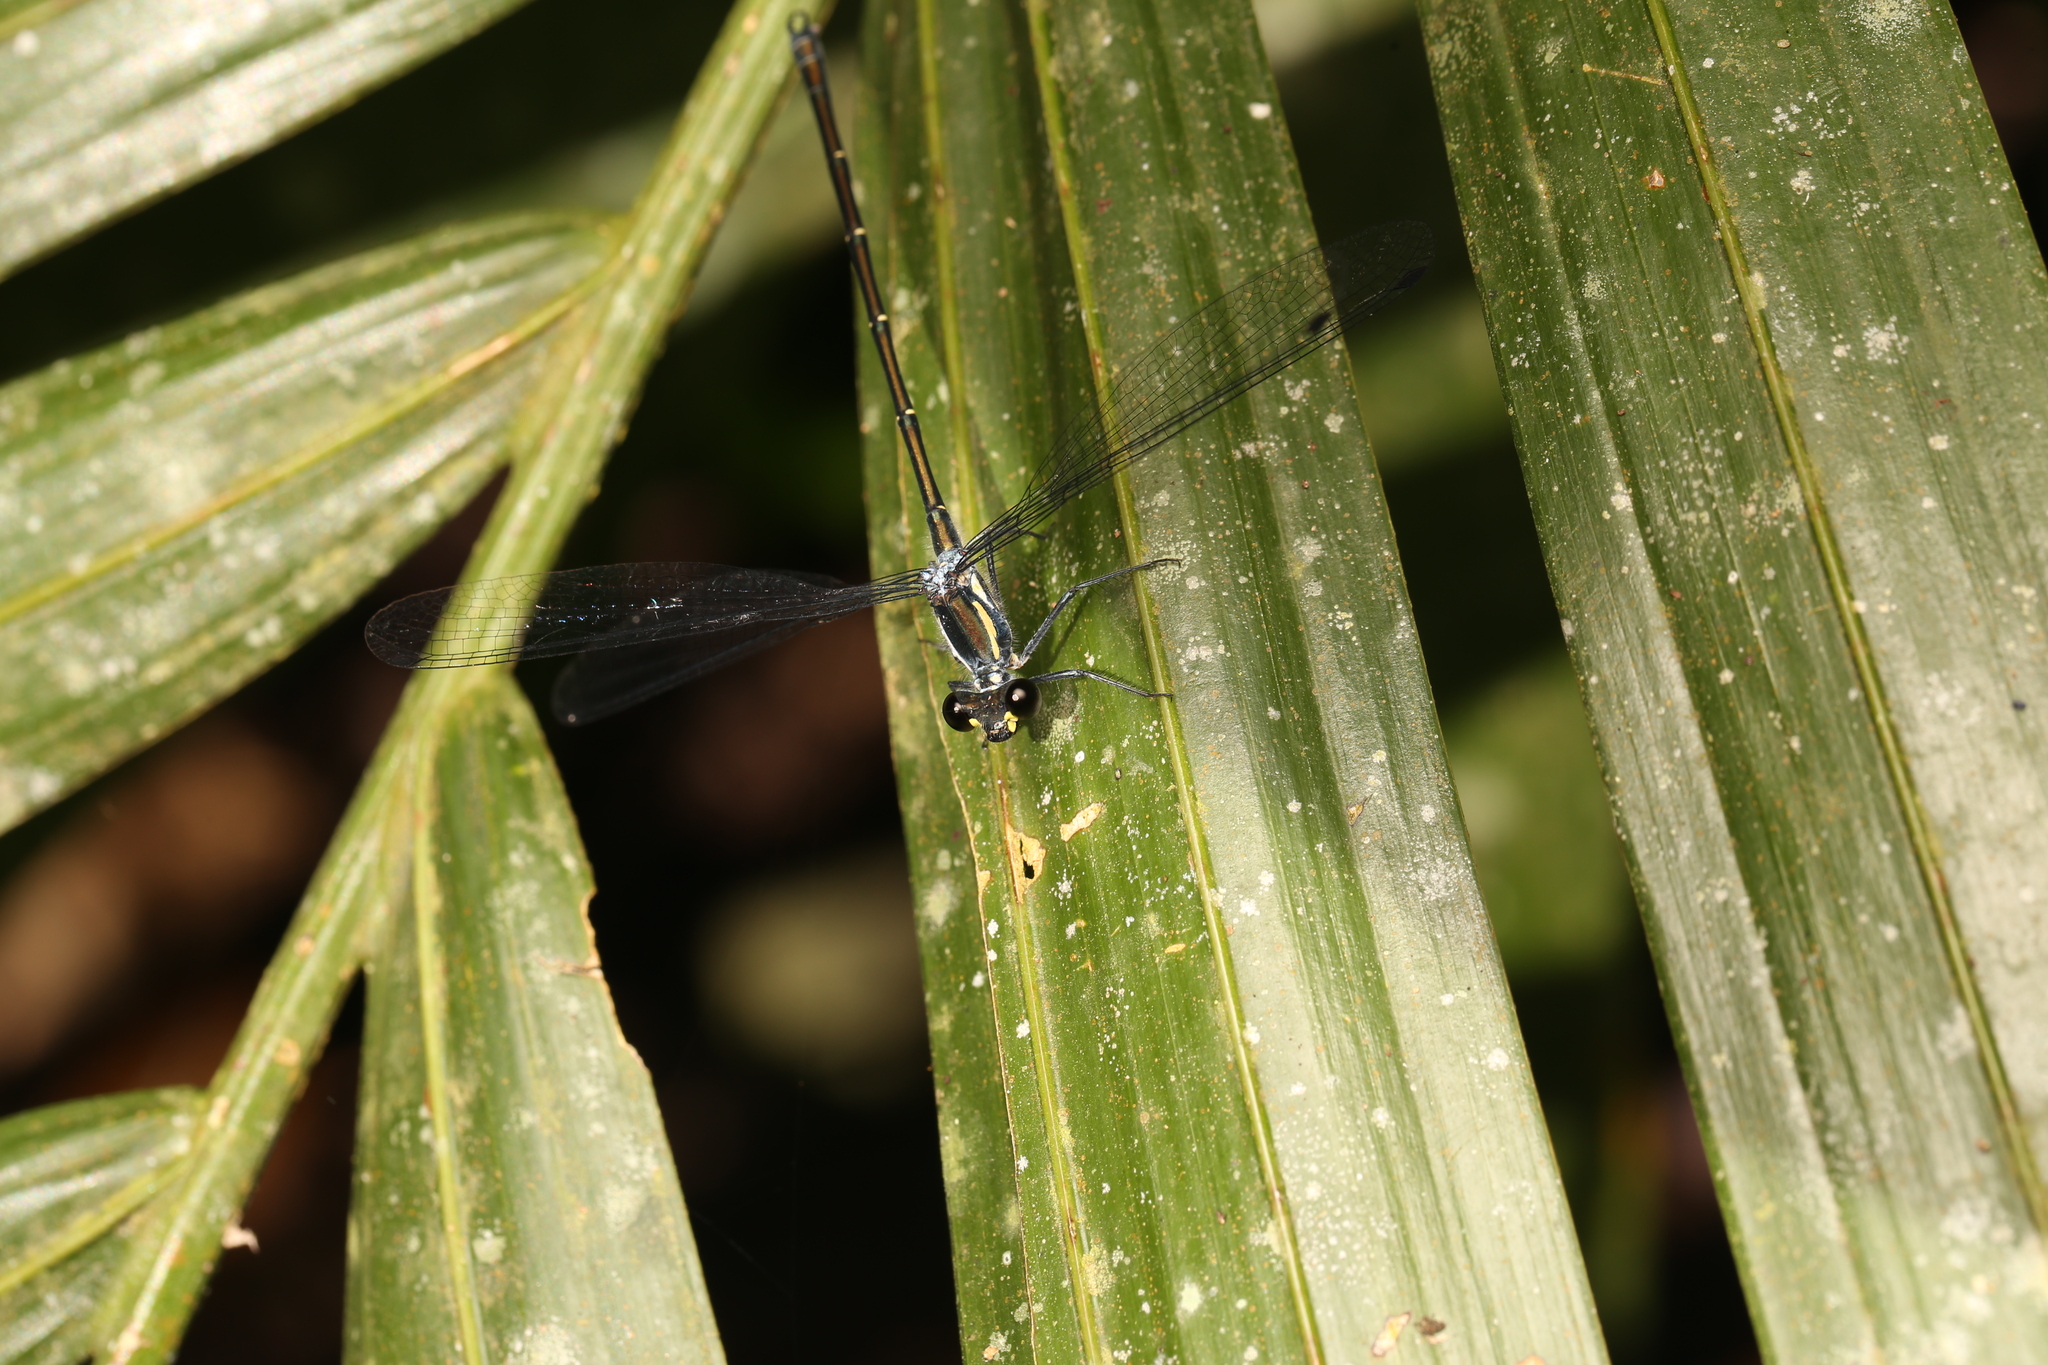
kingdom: Animalia
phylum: Arthropoda
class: Insecta
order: Odonata
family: Argiolestidae
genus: Austroargiolestes
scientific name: Austroargiolestes icteromelas
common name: Common flatwing
